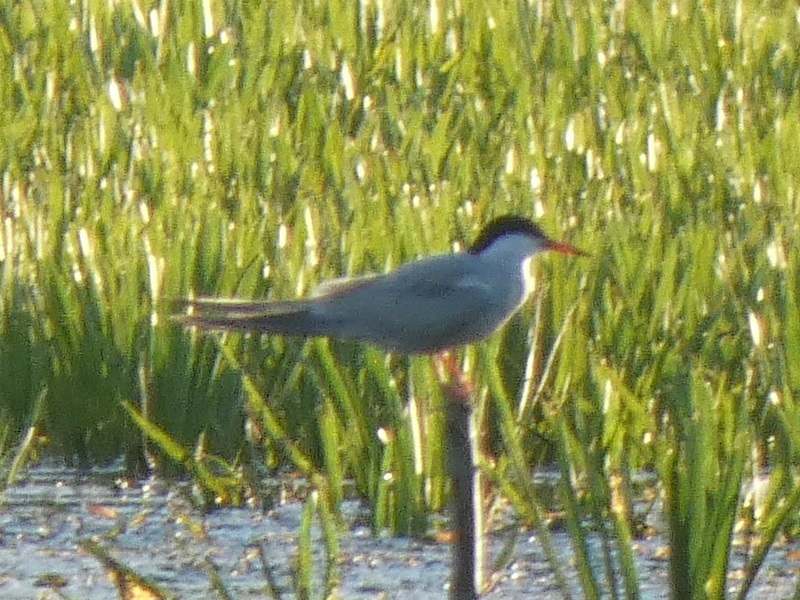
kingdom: Animalia
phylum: Chordata
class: Aves
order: Charadriiformes
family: Laridae
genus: Sterna
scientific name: Sterna hirundo
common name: Common tern
